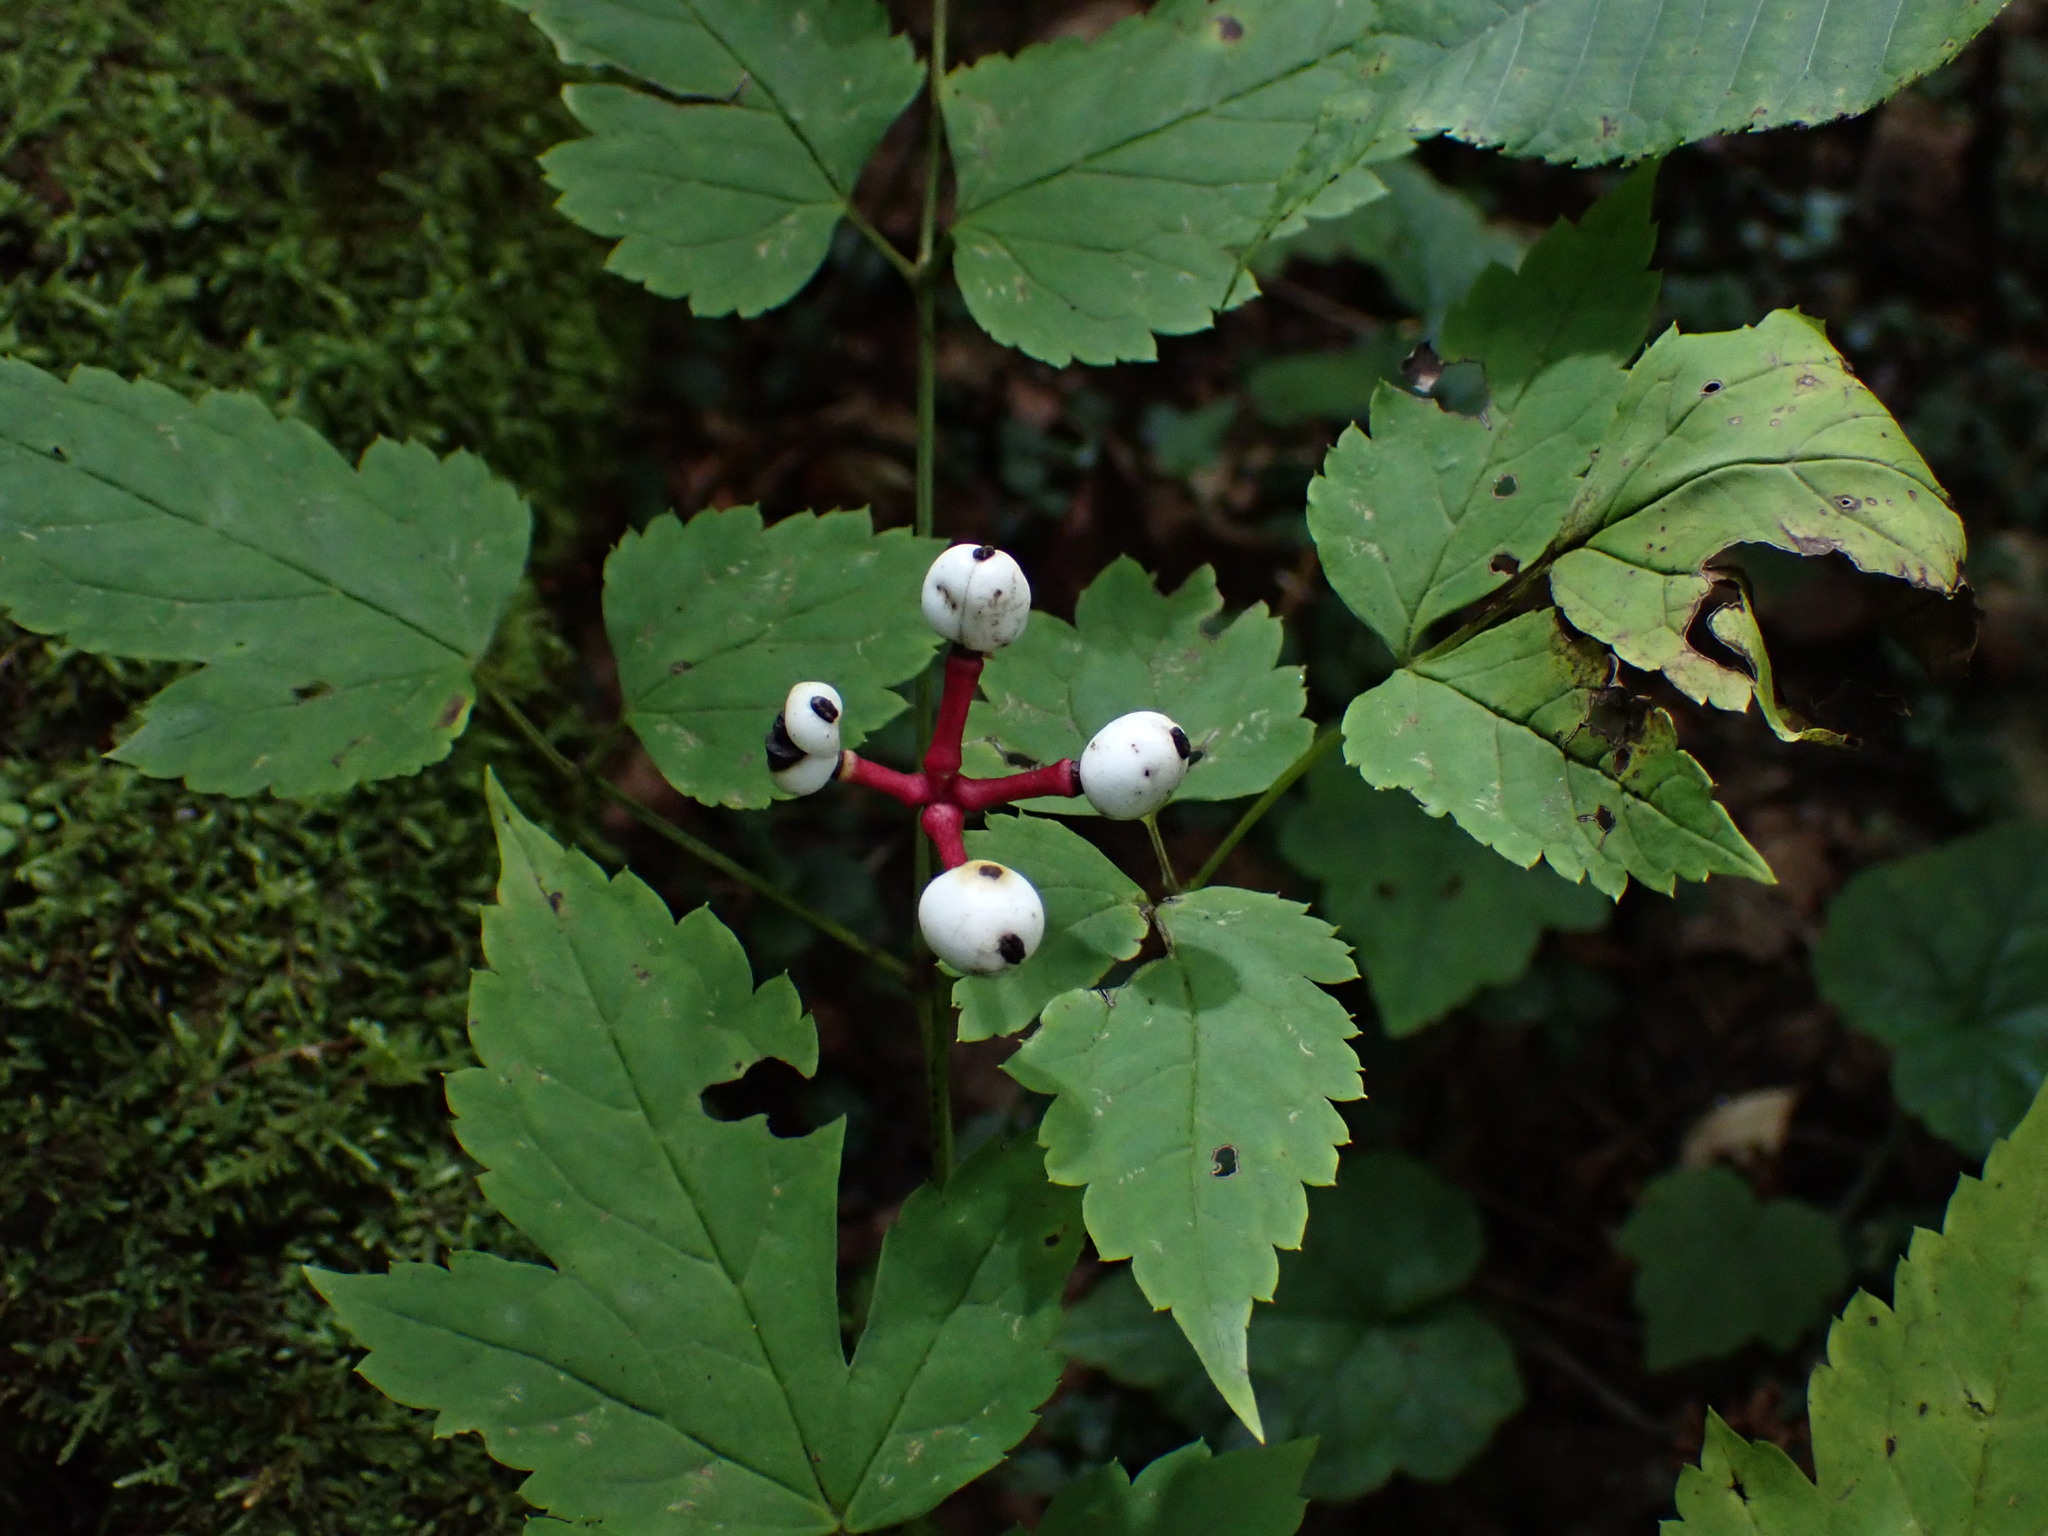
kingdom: Plantae
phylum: Tracheophyta
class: Magnoliopsida
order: Ranunculales
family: Ranunculaceae
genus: Actaea
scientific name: Actaea pachypoda
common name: Doll's-eyes
